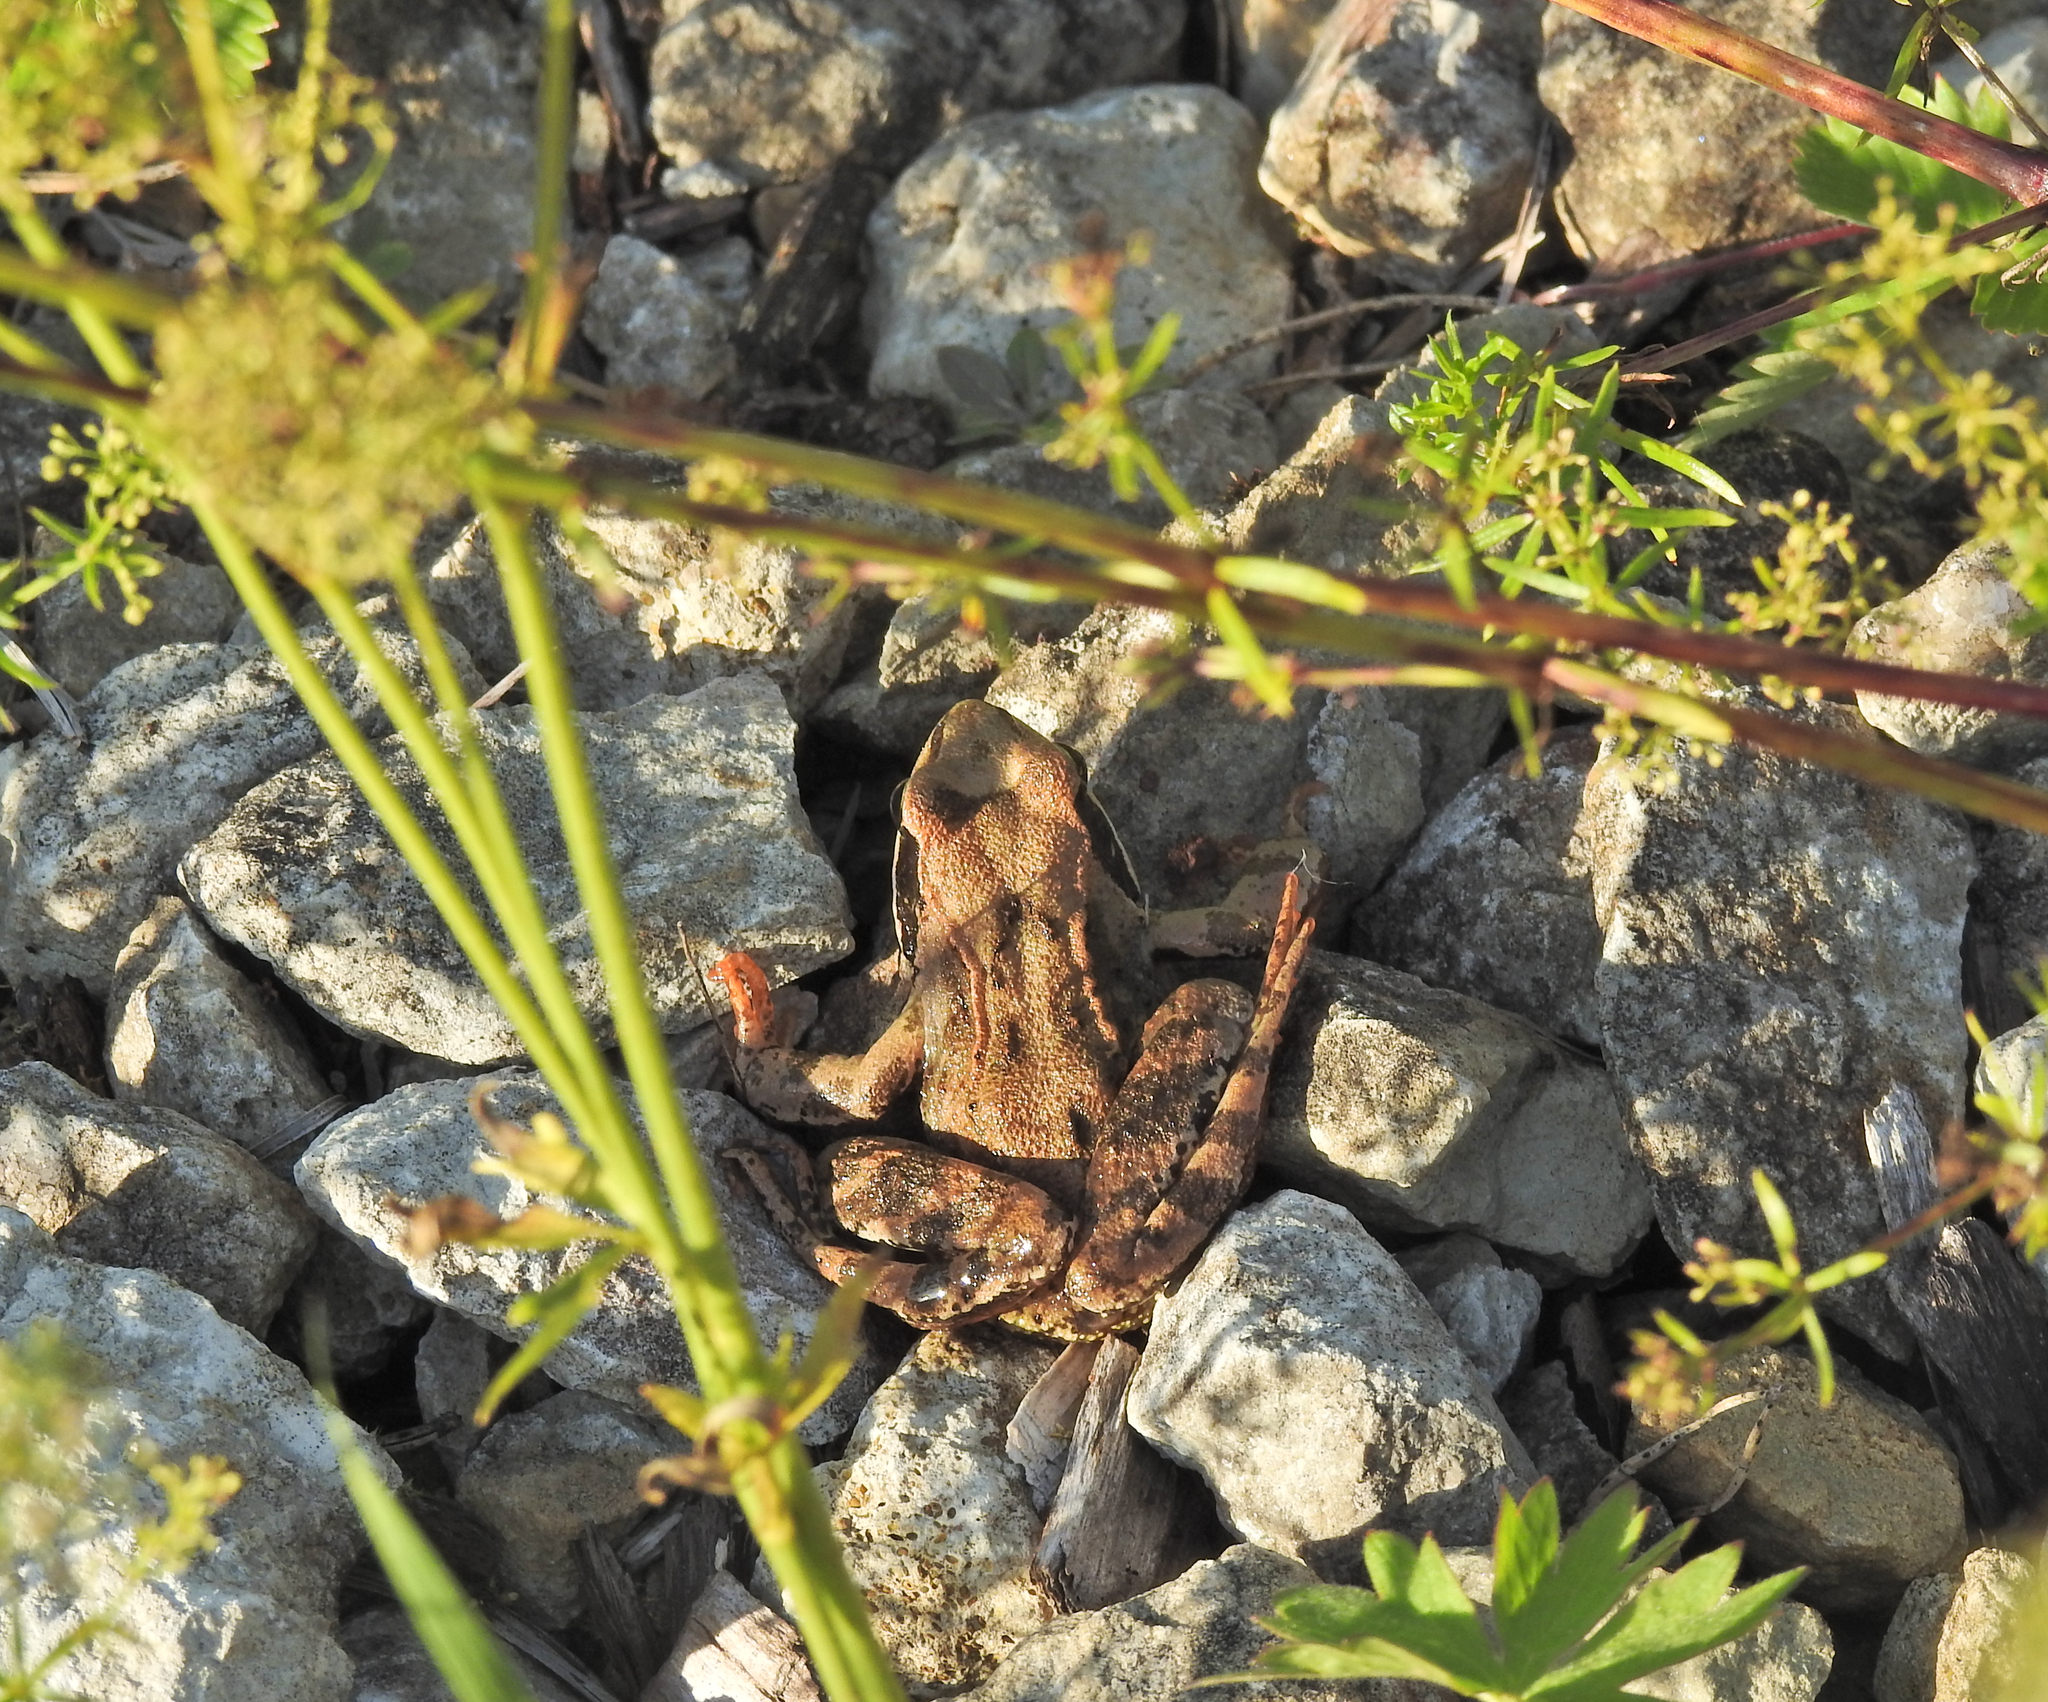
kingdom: Animalia
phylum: Chordata
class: Amphibia
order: Anura
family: Ranidae
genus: Rana
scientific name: Rana temporaria
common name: Common frog
